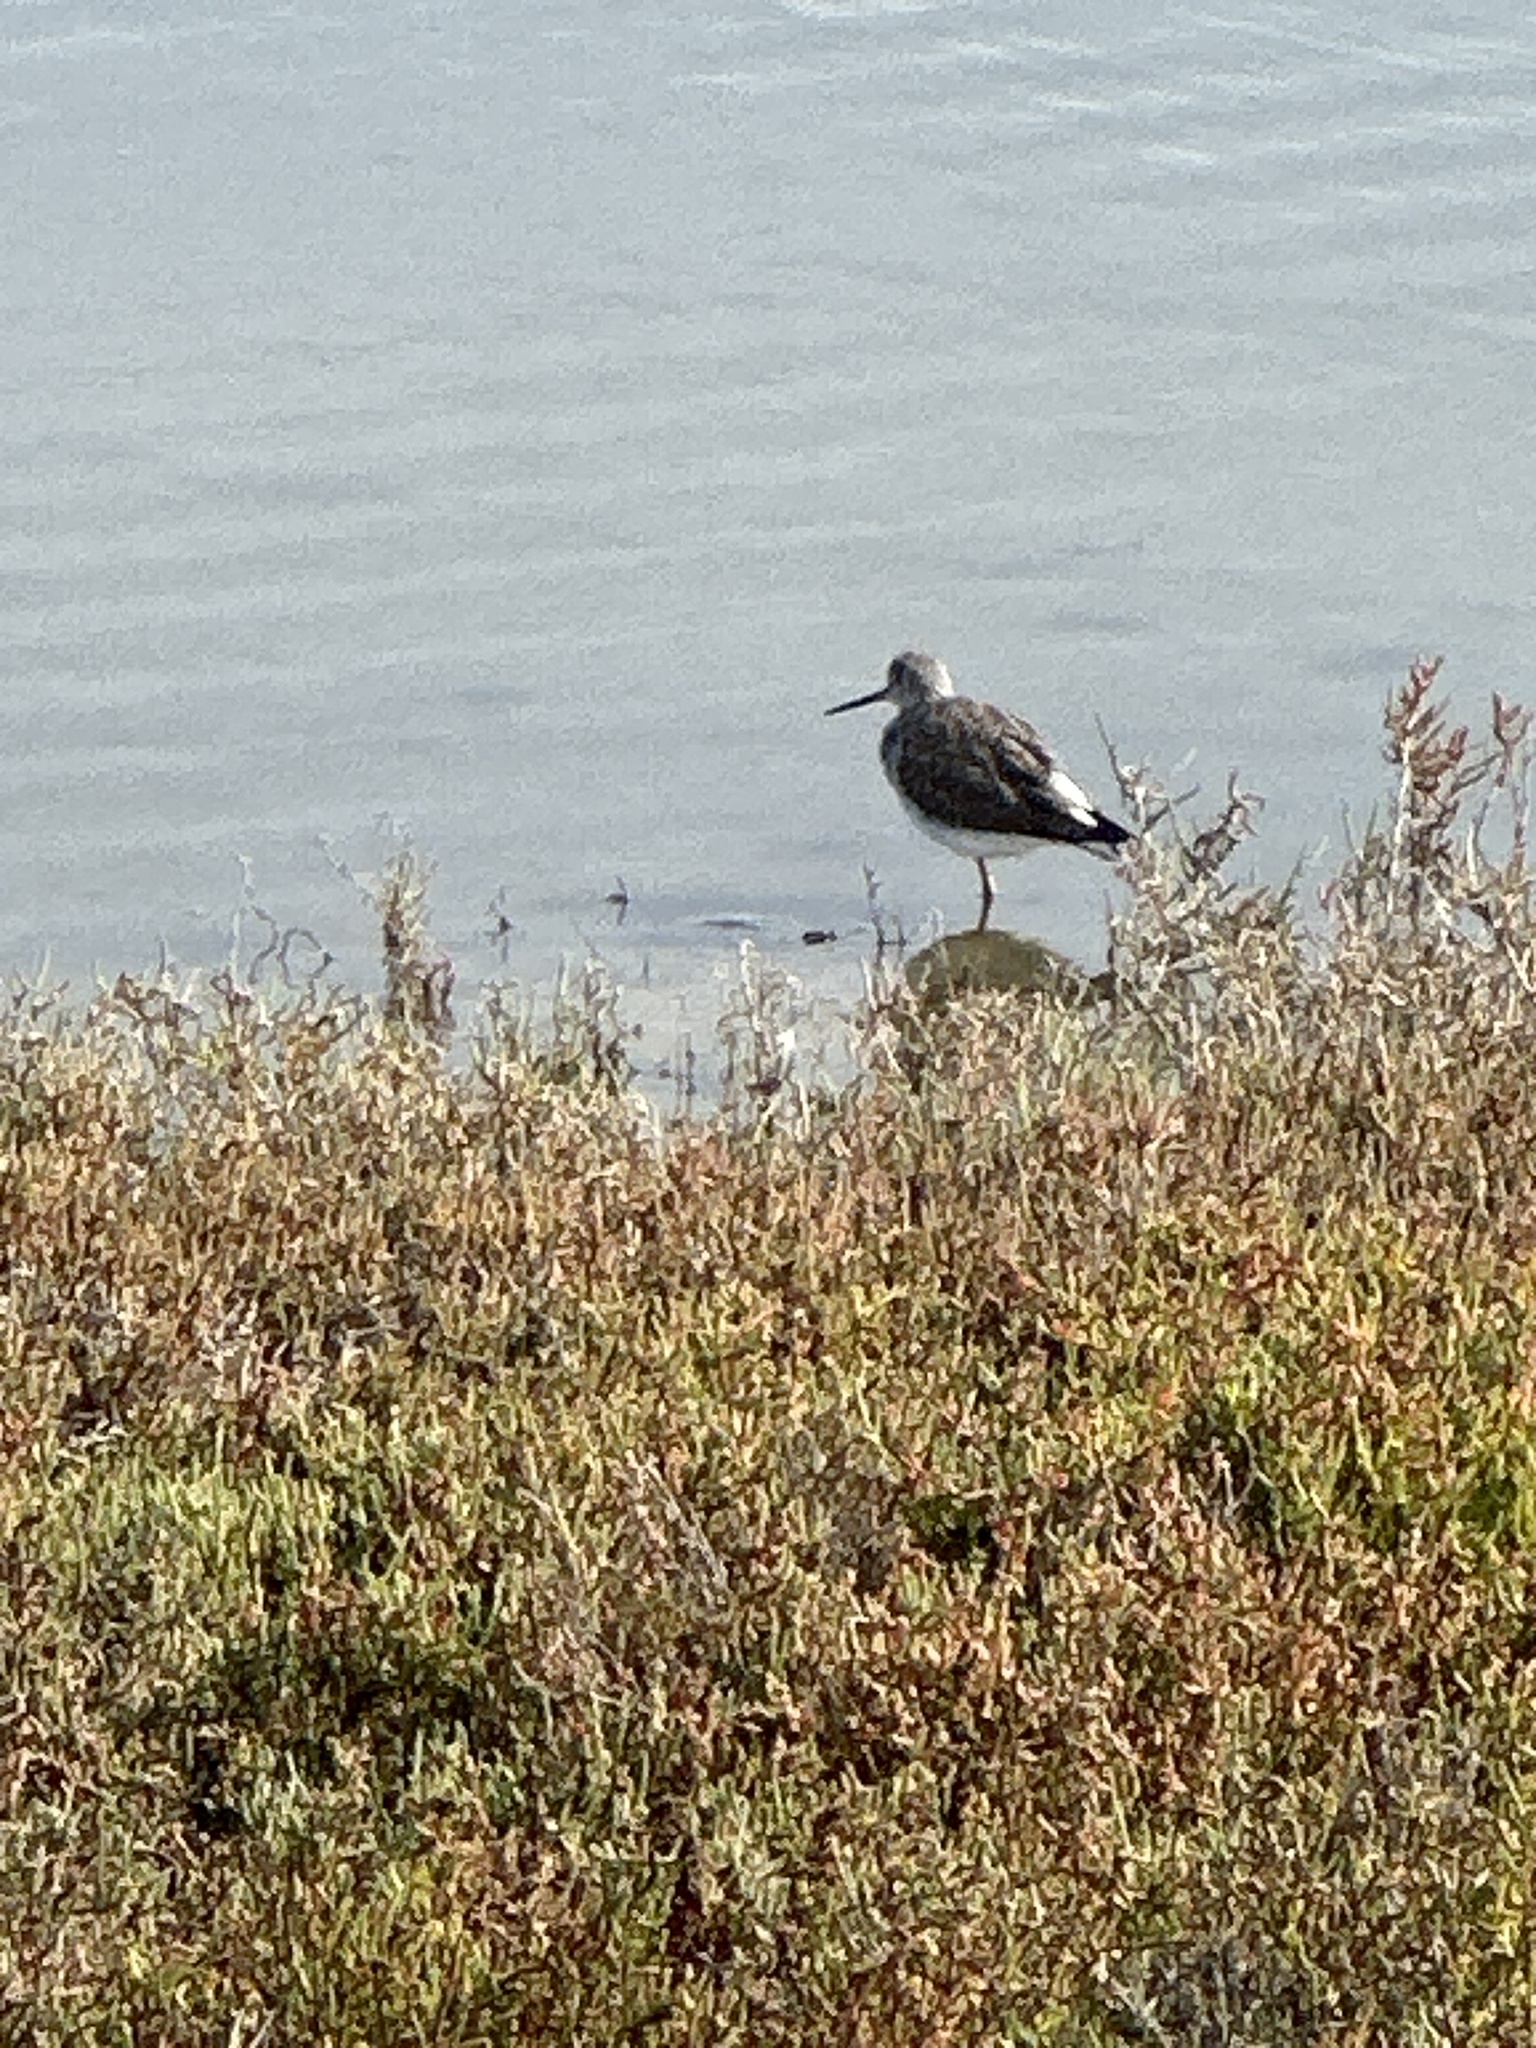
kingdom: Animalia
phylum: Chordata
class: Aves
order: Charadriiformes
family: Scolopacidae
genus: Tringa
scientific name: Tringa melanoleuca
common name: Greater yellowlegs
